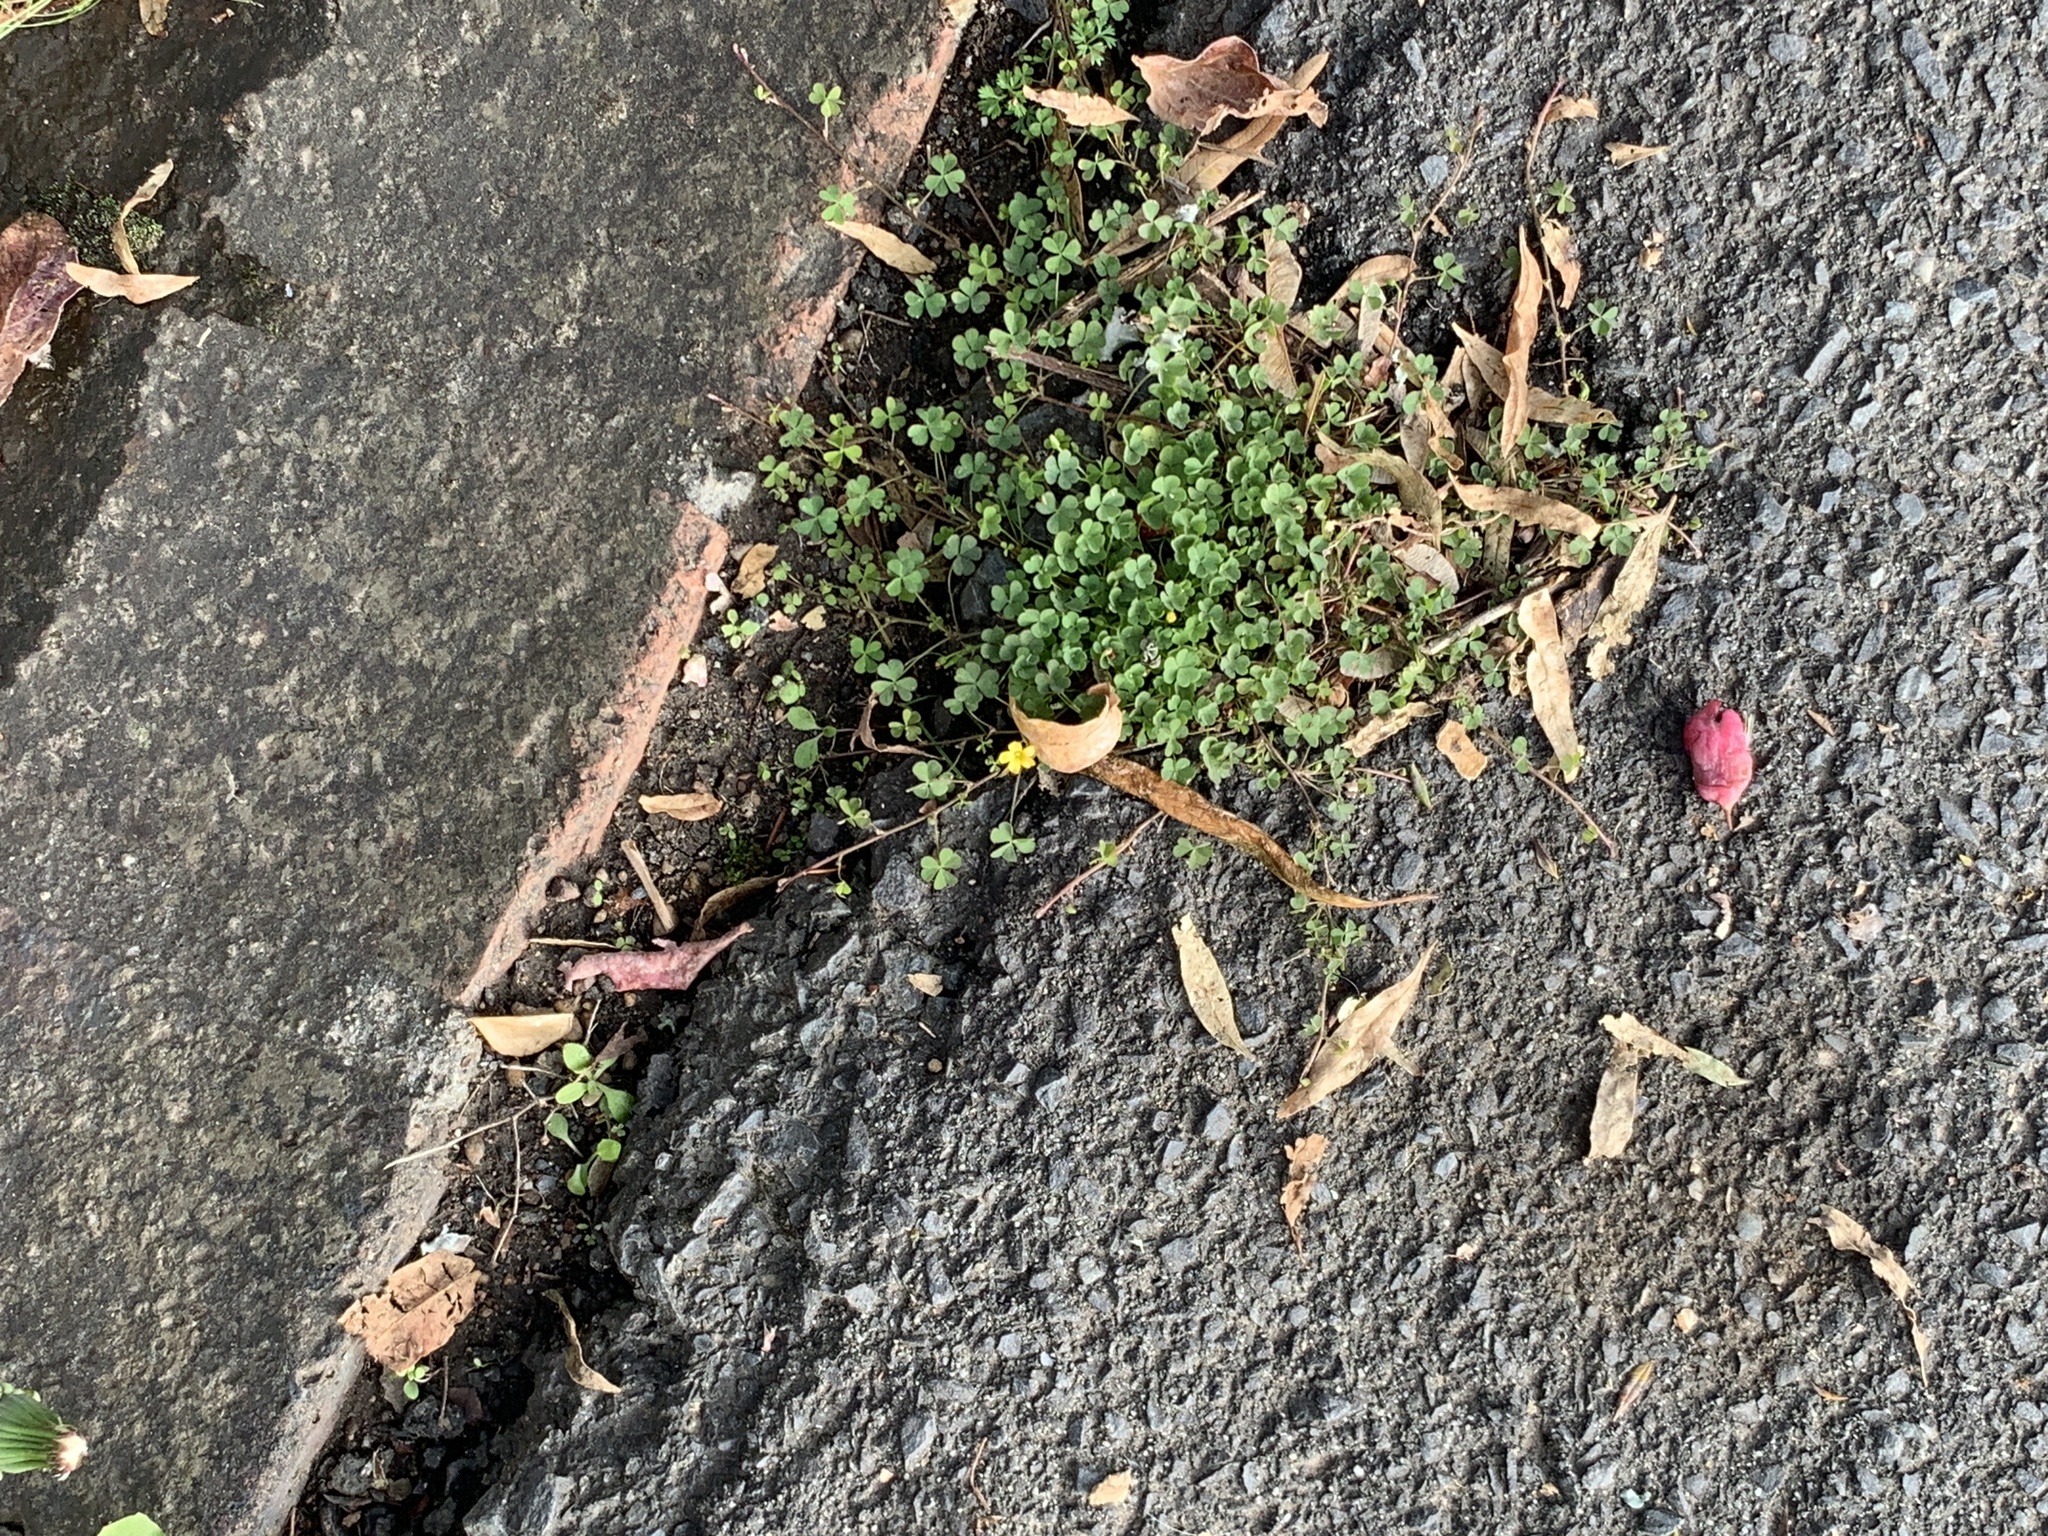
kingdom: Plantae
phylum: Tracheophyta
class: Magnoliopsida
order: Oxalidales
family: Oxalidaceae
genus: Oxalis
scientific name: Oxalis corniculata
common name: Procumbent yellow-sorrel
